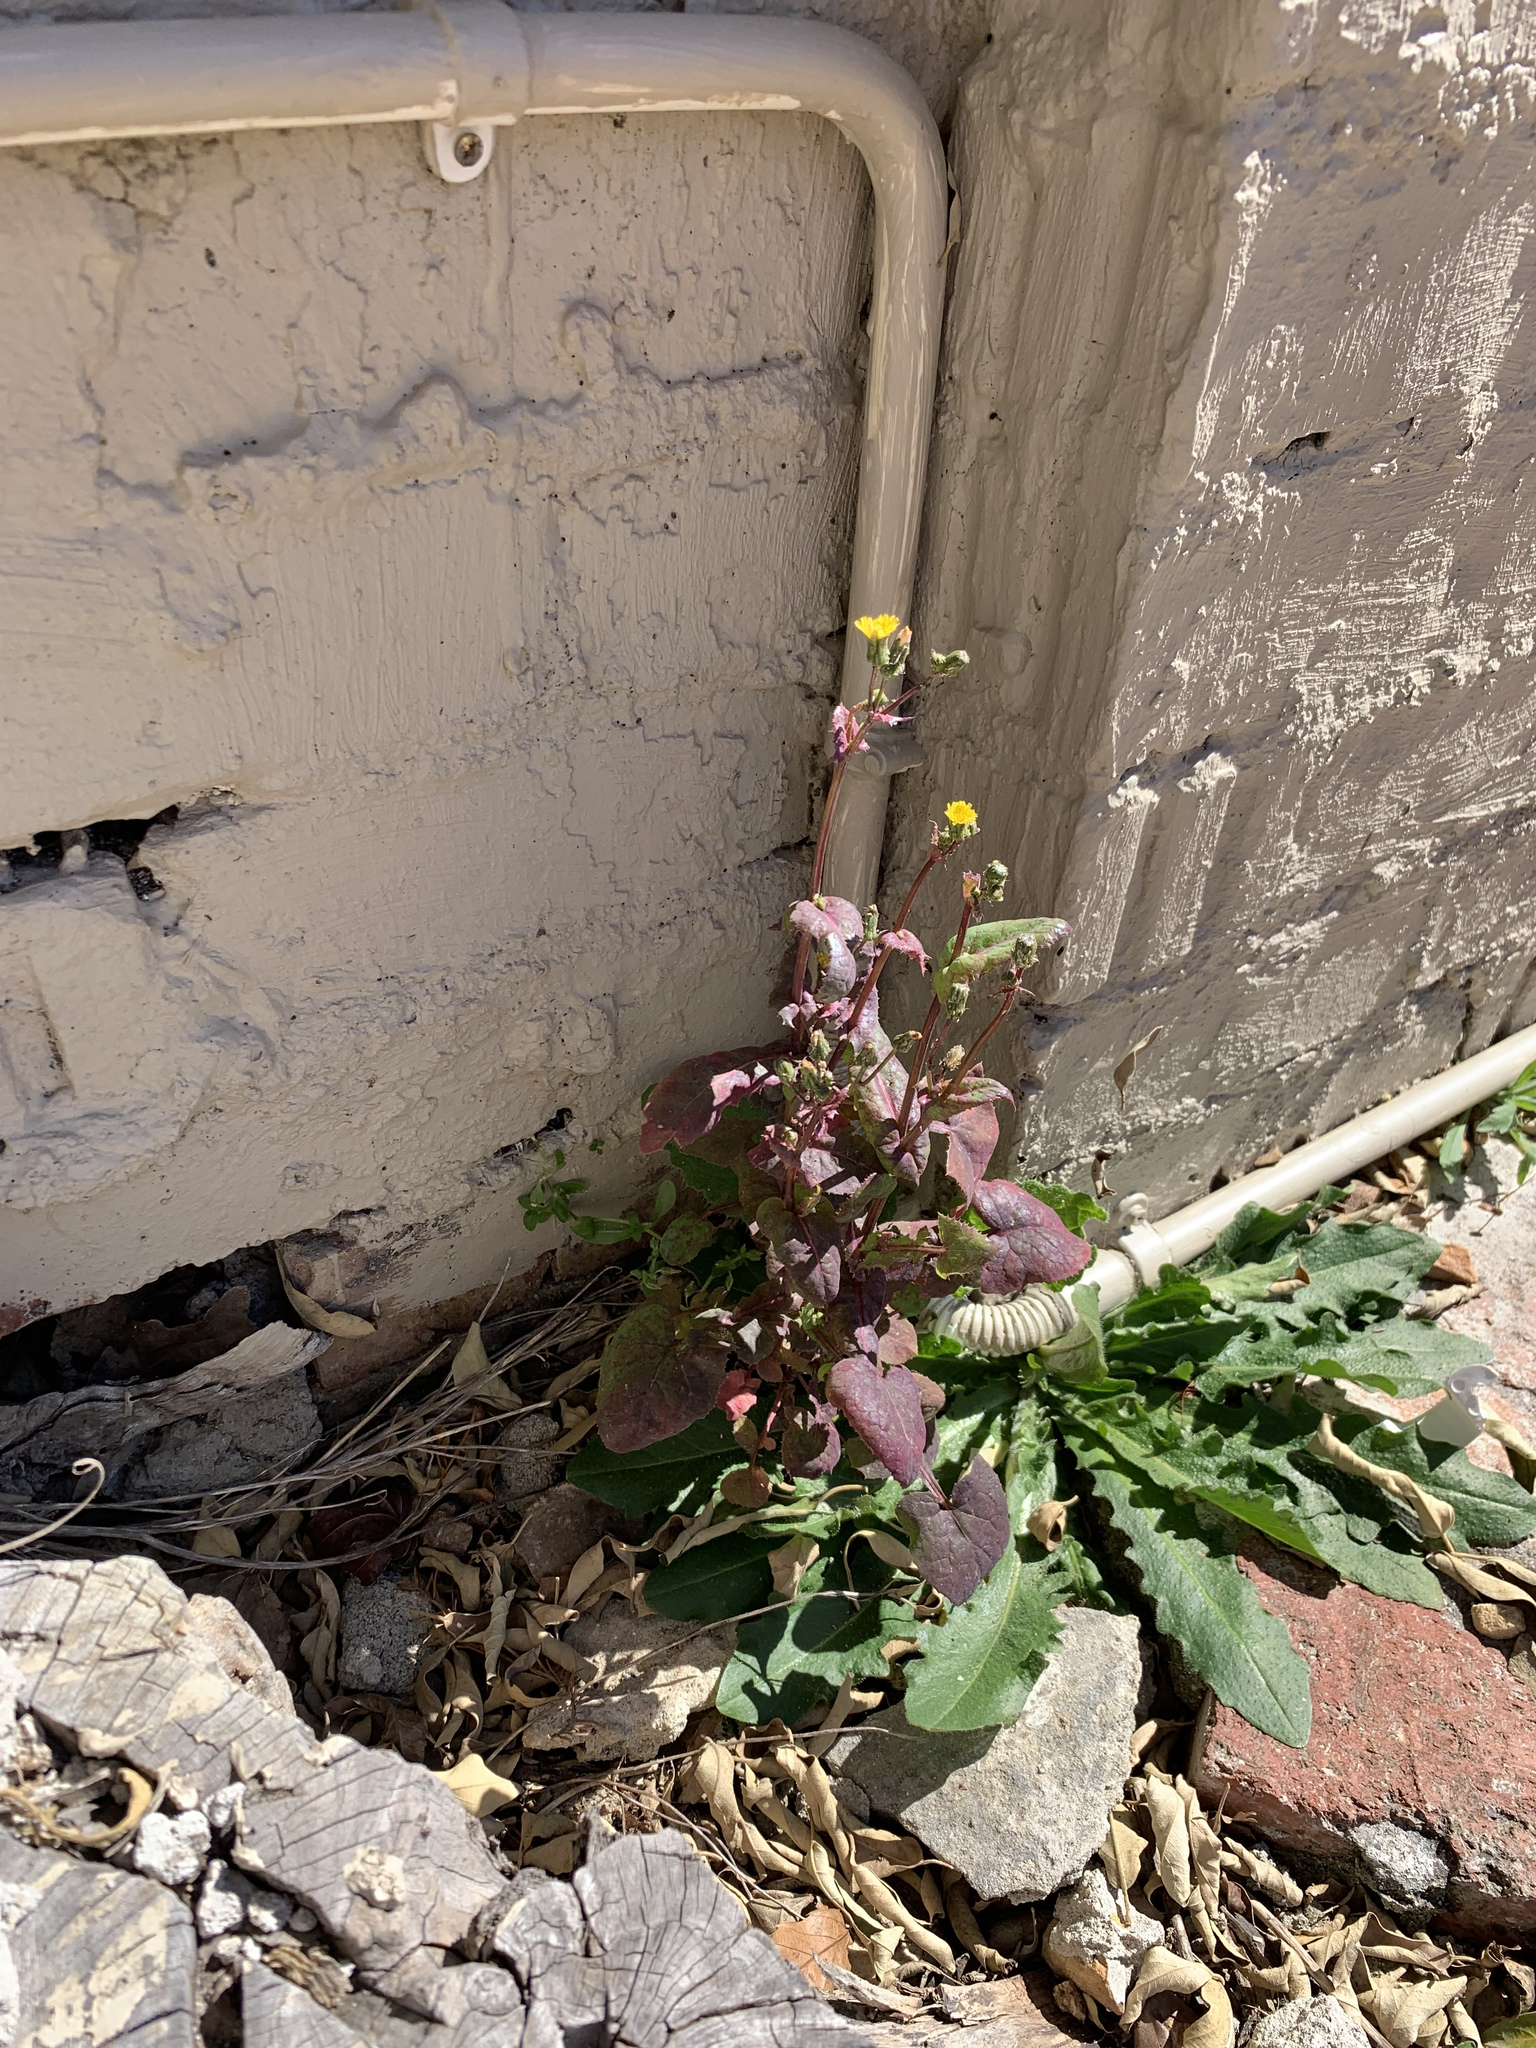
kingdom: Plantae
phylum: Tracheophyta
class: Magnoliopsida
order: Asterales
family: Asteraceae
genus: Sonchus
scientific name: Sonchus oleraceus
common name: Common sowthistle
